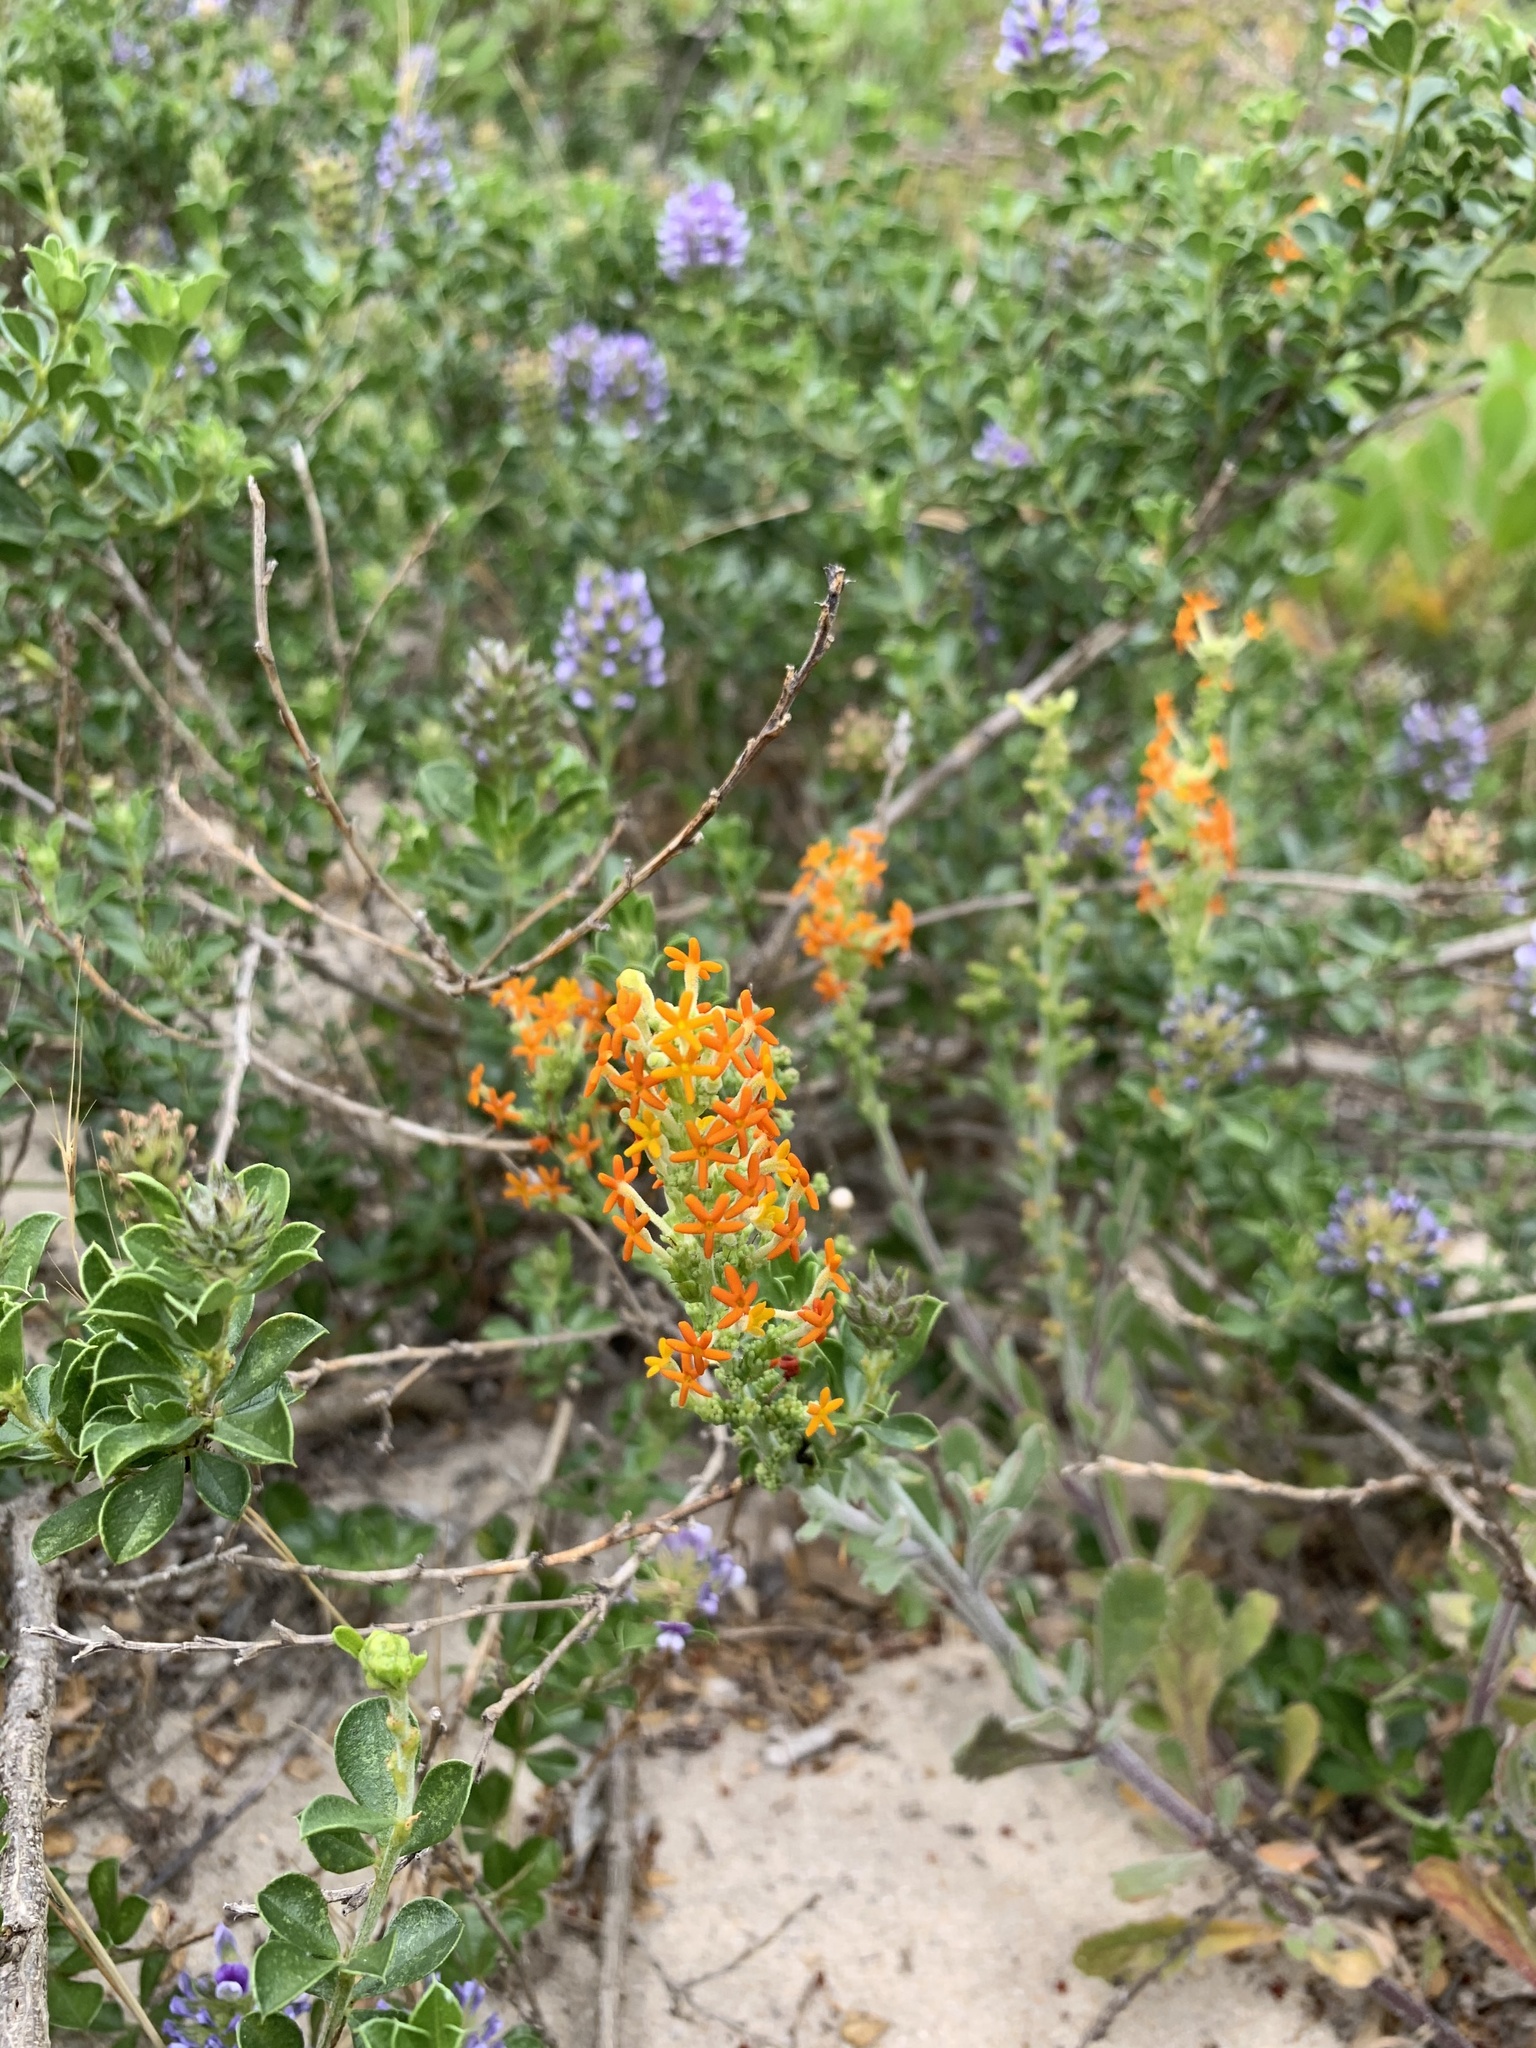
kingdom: Plantae
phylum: Tracheophyta
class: Magnoliopsida
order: Lamiales
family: Scrophulariaceae
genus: Manulea
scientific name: Manulea tomentosa
